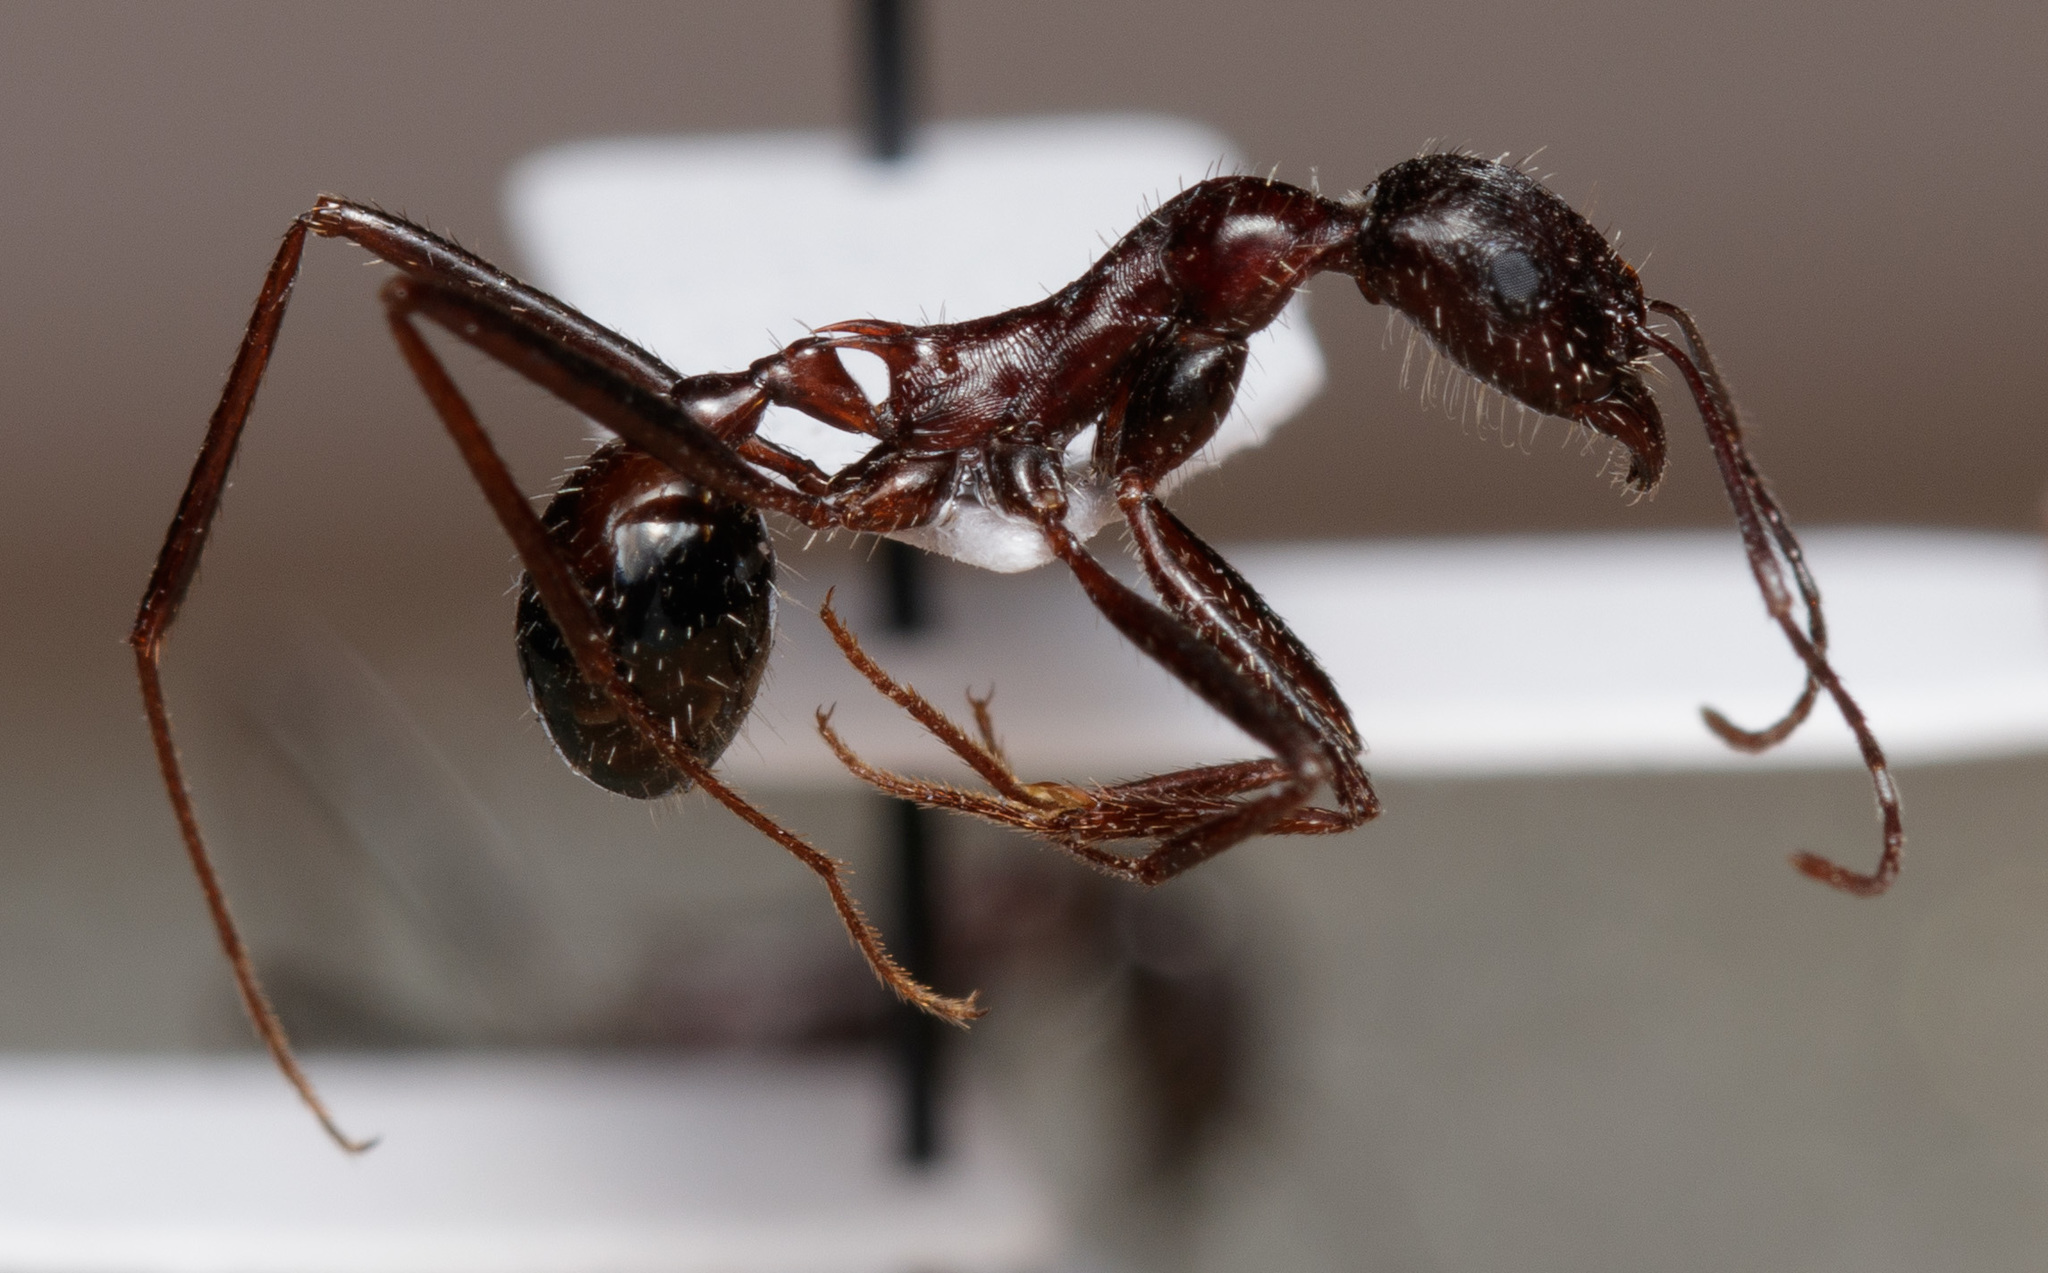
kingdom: Animalia
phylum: Arthropoda
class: Insecta
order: Hymenoptera
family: Formicidae
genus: Novomessor
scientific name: Novomessor cockerelli
